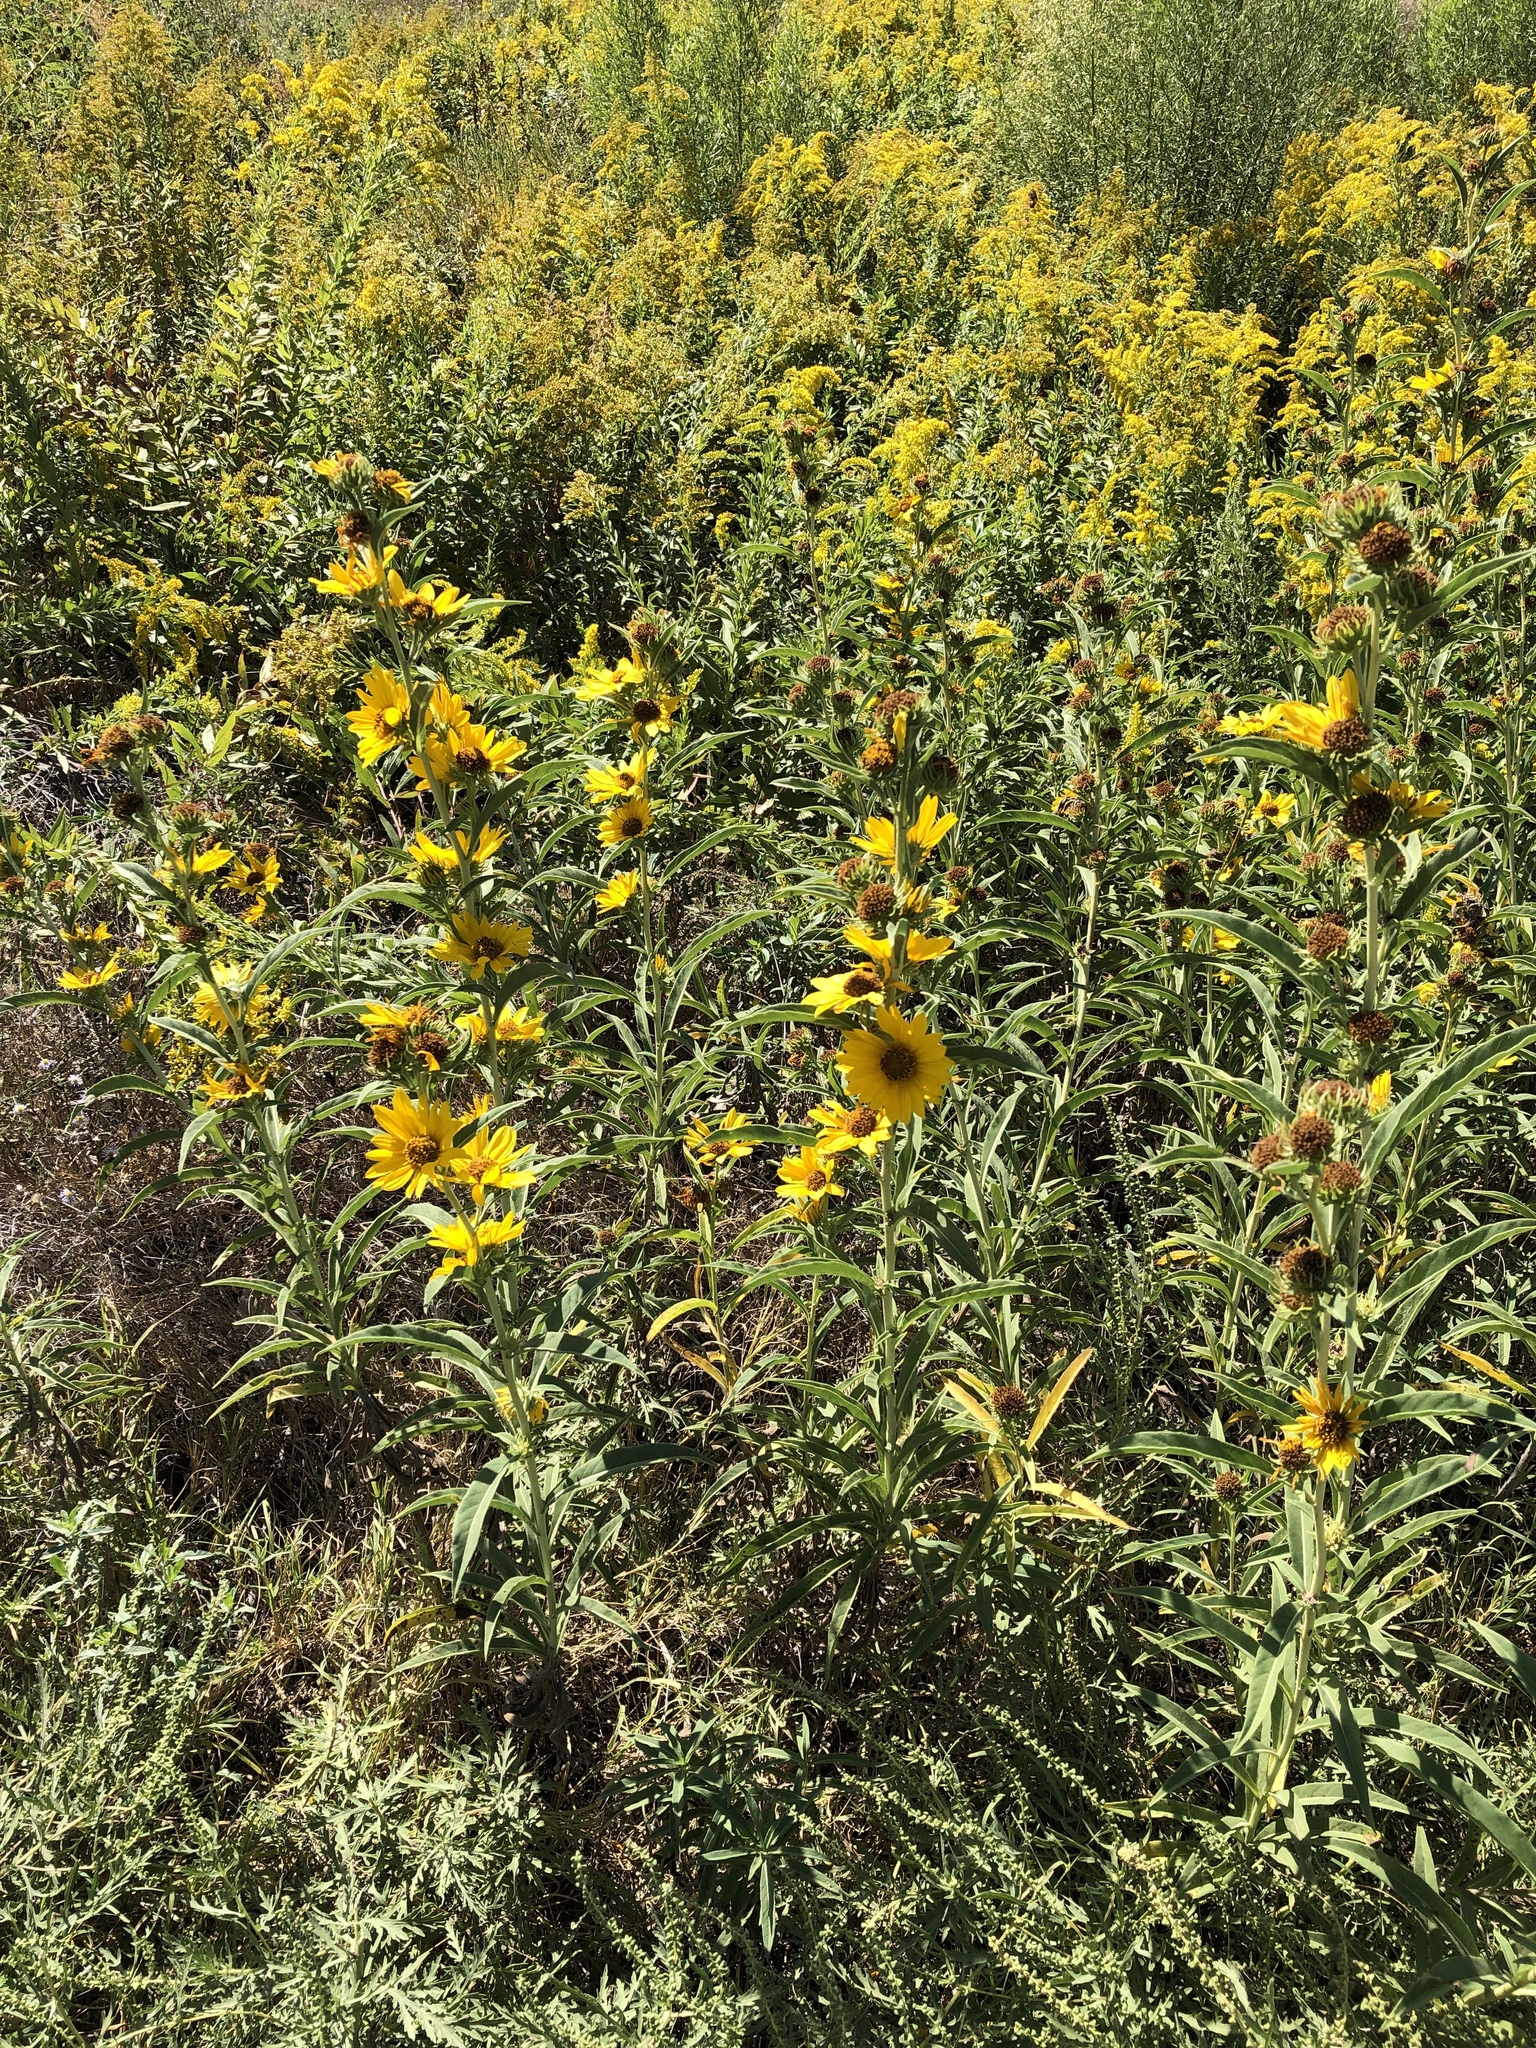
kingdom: Plantae
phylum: Tracheophyta
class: Magnoliopsida
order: Asterales
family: Asteraceae
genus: Helianthus
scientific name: Helianthus maximiliani
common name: Maximilian's sunflower
